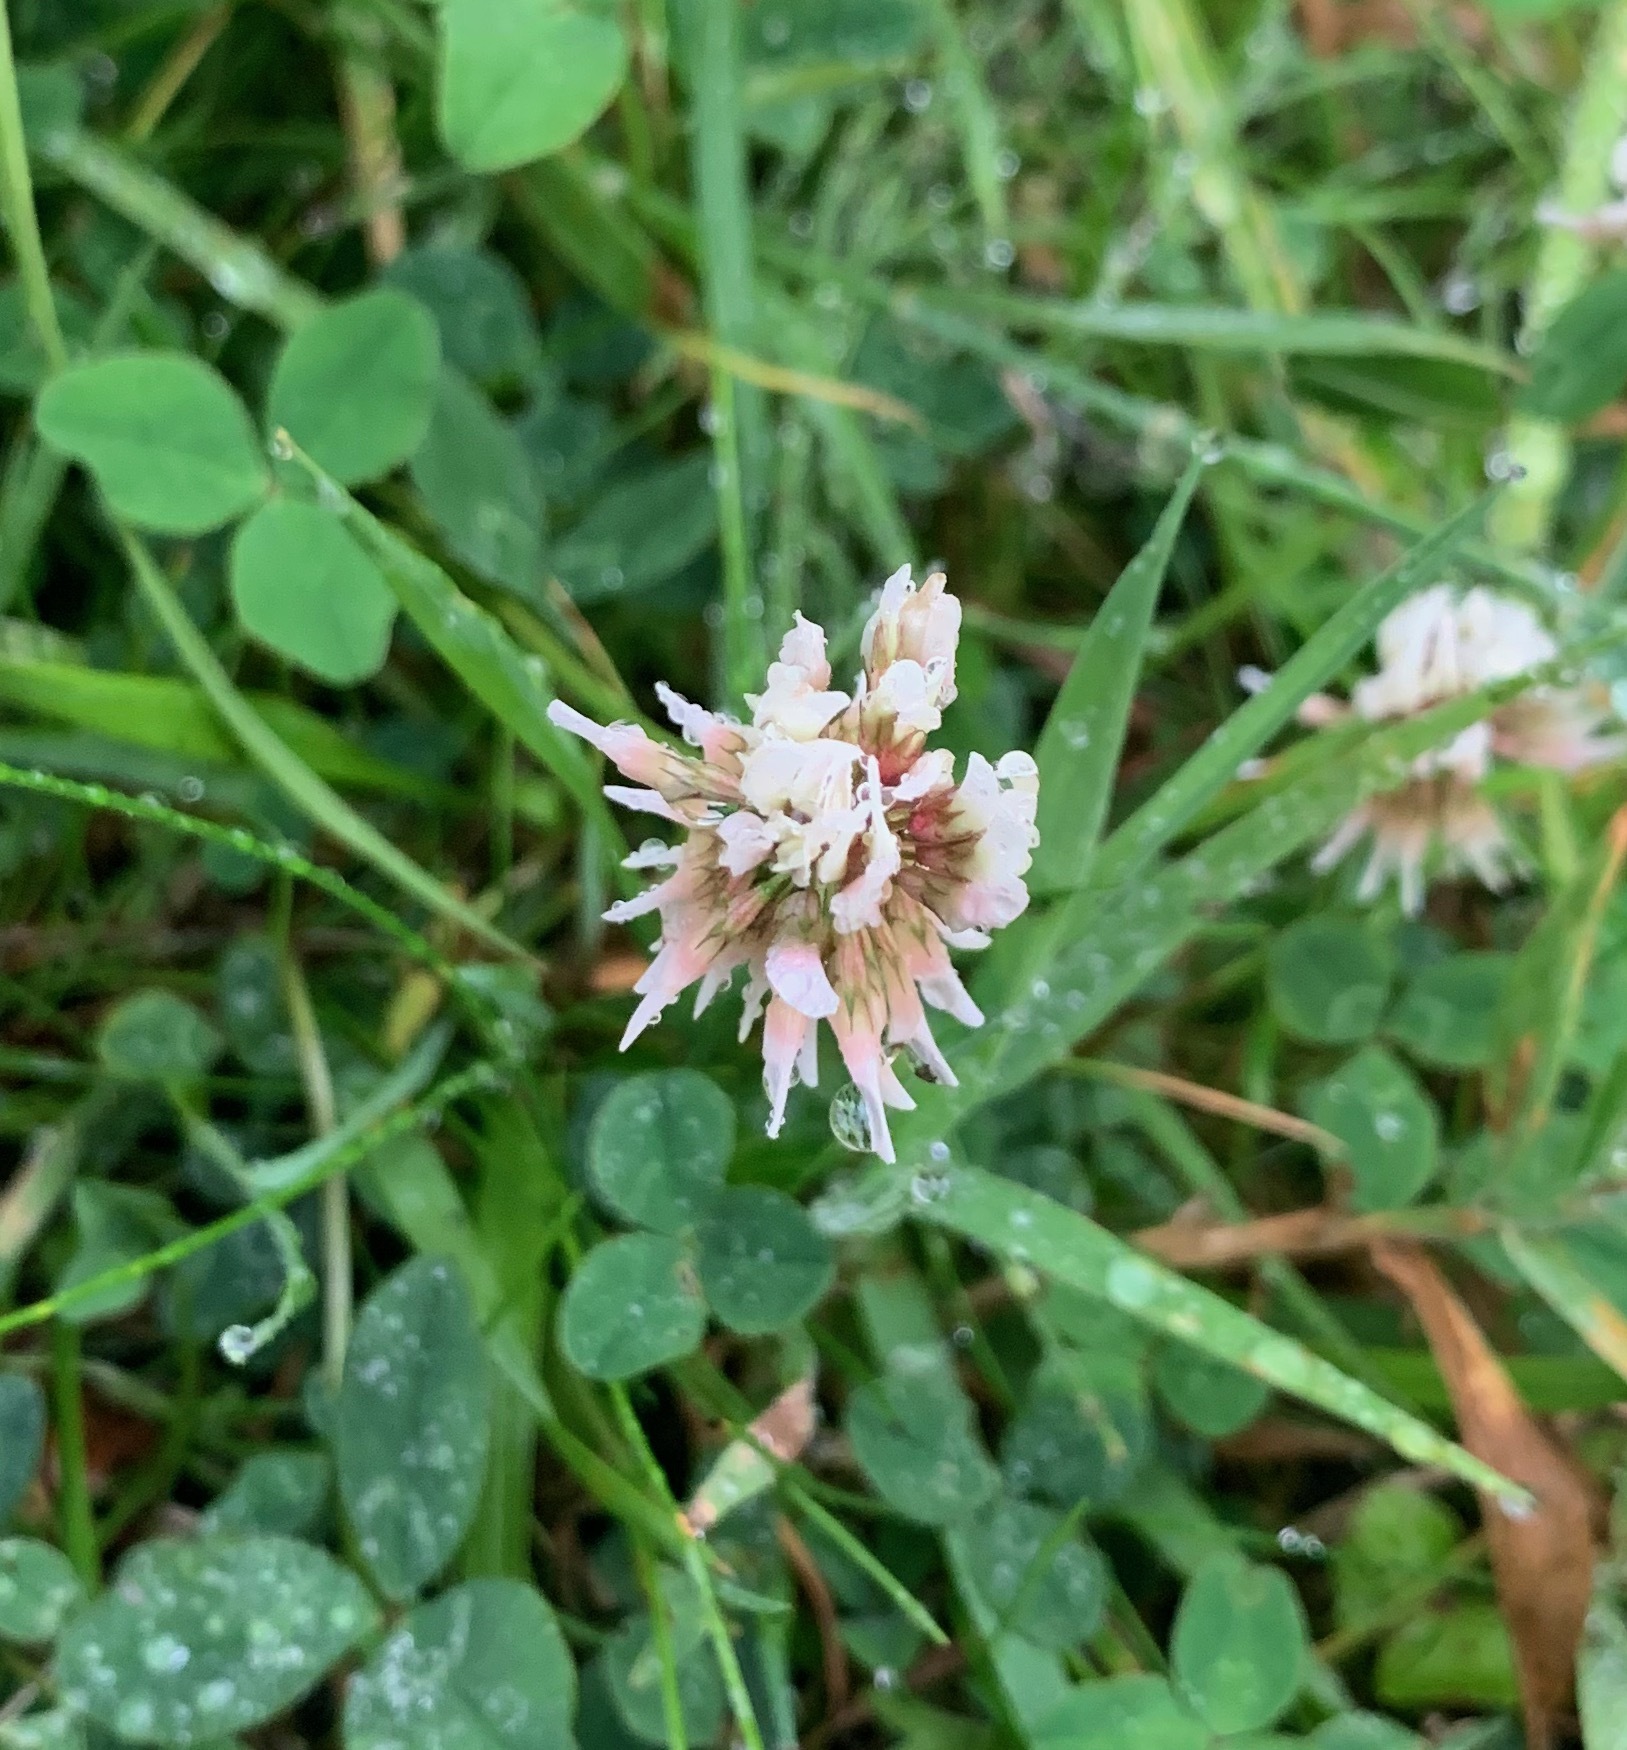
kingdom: Plantae
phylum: Tracheophyta
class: Magnoliopsida
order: Fabales
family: Fabaceae
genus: Trifolium
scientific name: Trifolium repens
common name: White clover
